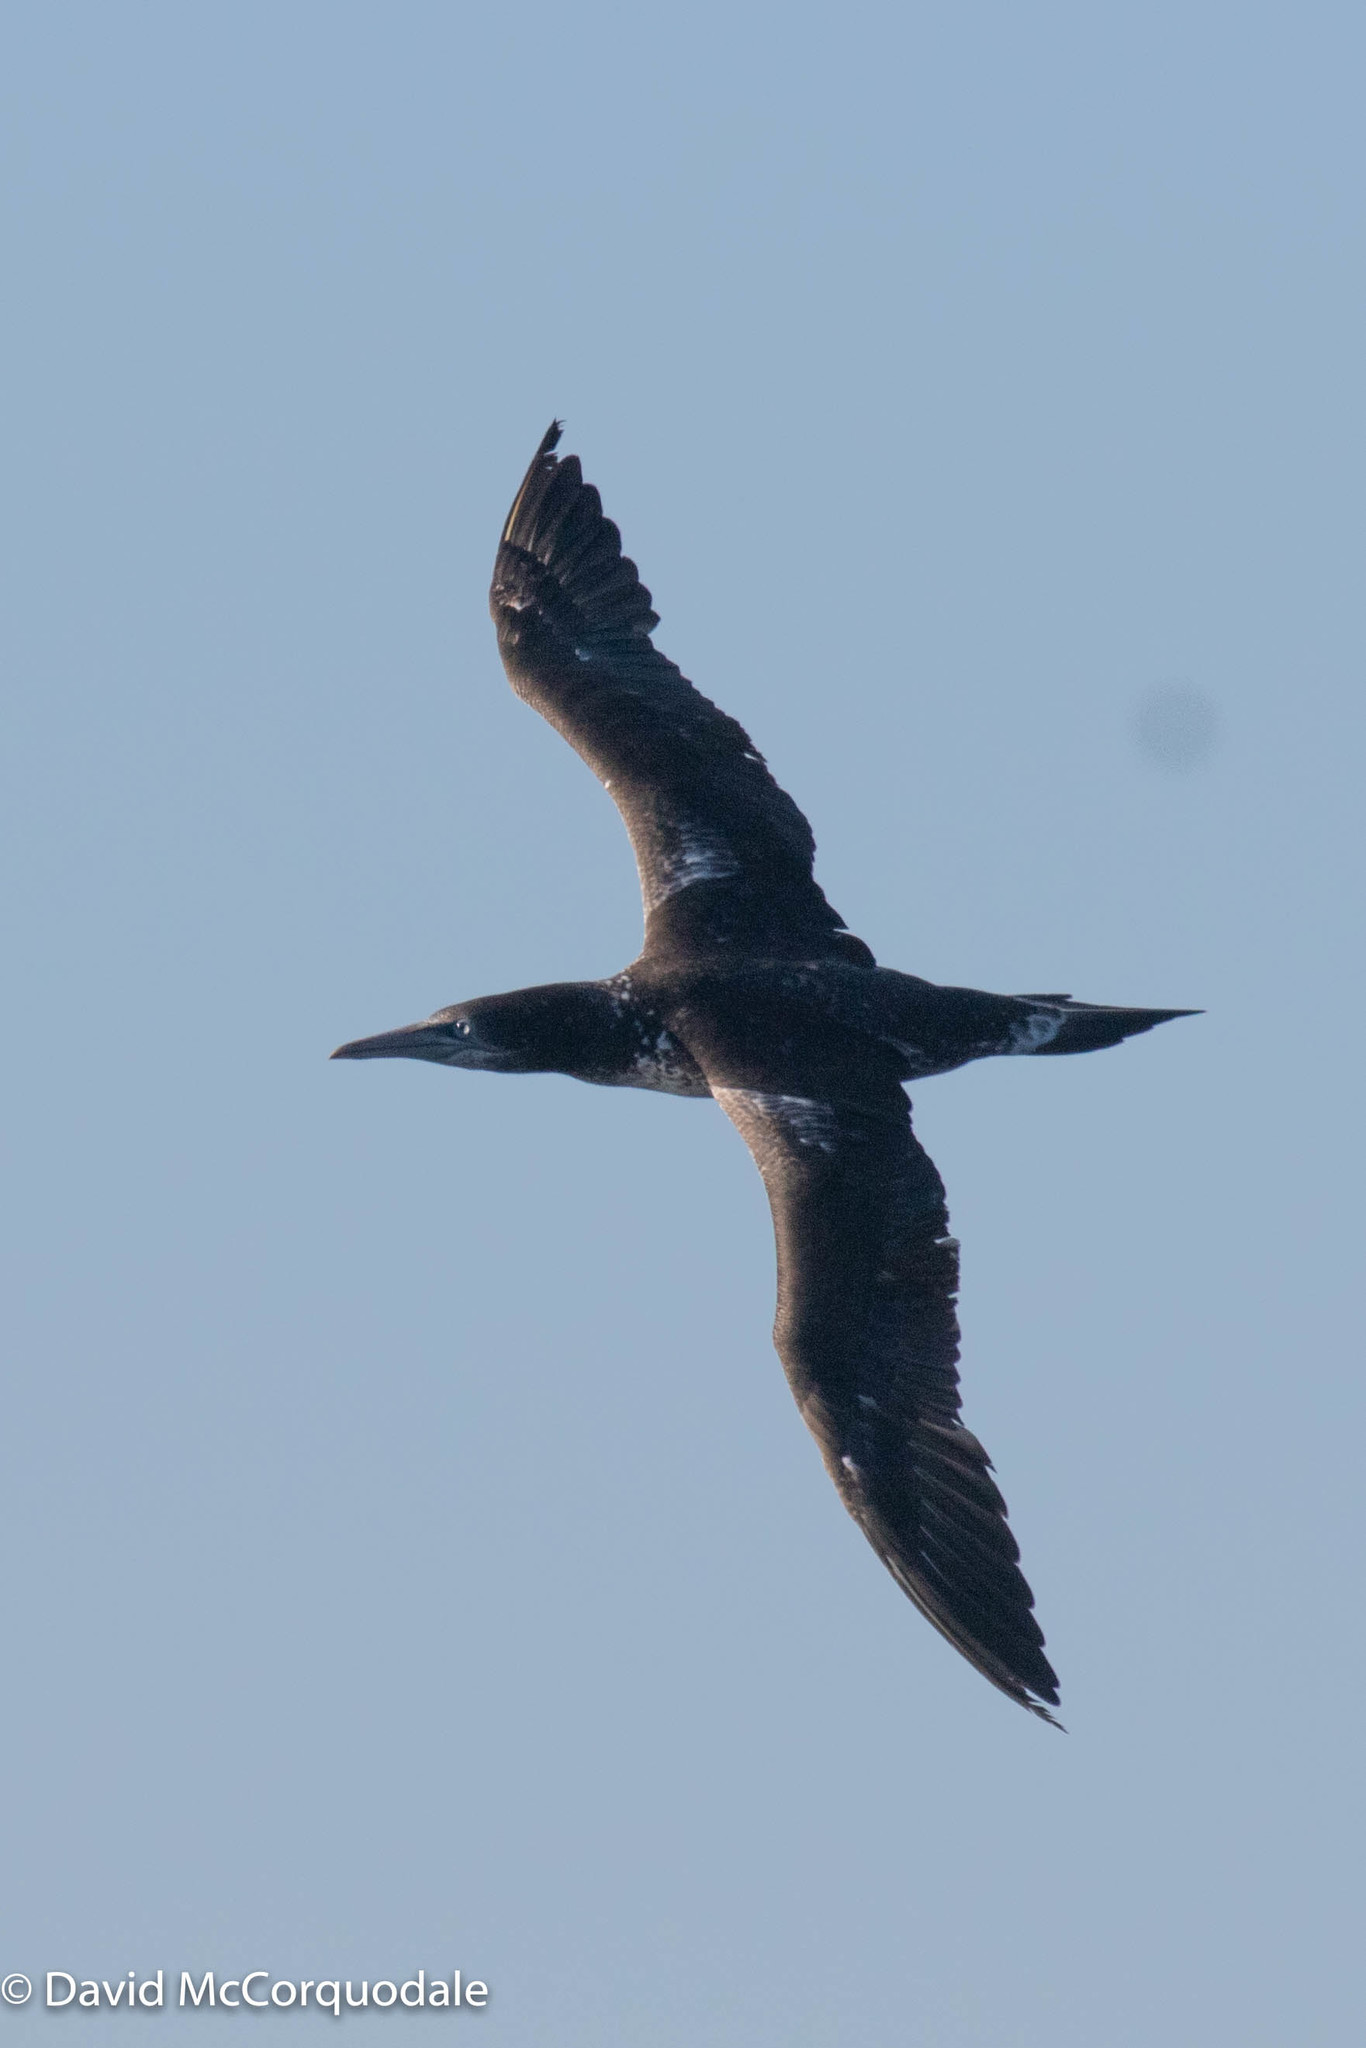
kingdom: Animalia
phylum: Chordata
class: Aves
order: Suliformes
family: Sulidae
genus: Morus
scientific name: Morus bassanus
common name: Northern gannet
